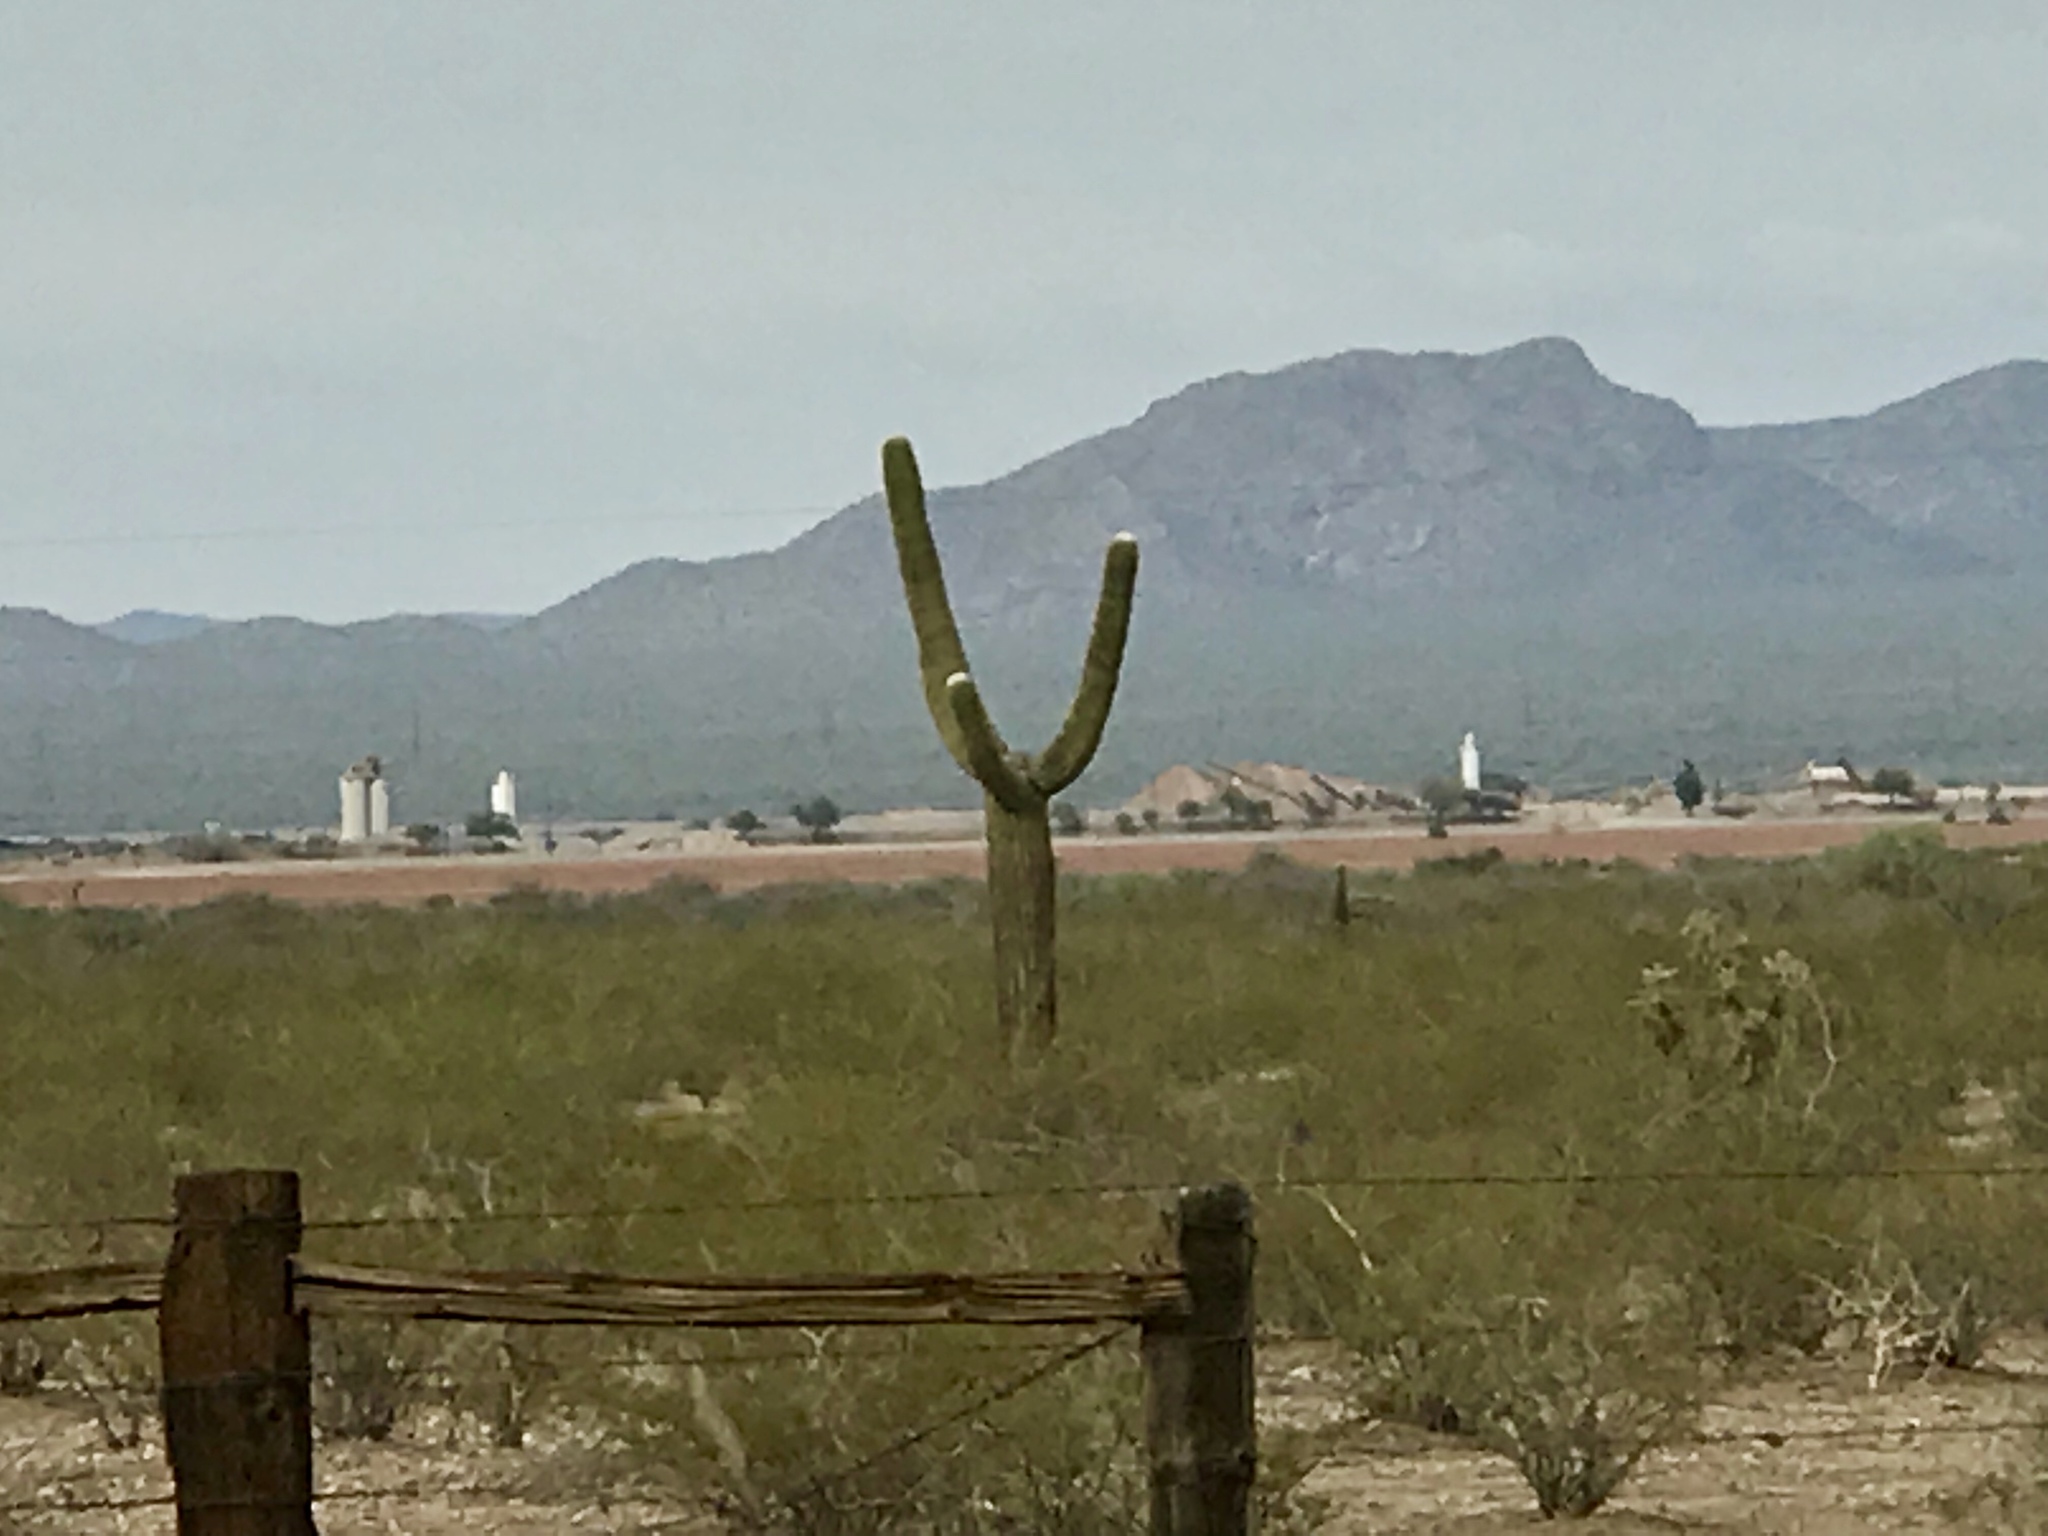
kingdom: Plantae
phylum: Tracheophyta
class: Magnoliopsida
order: Caryophyllales
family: Cactaceae
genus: Carnegiea
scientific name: Carnegiea gigantea
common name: Saguaro
